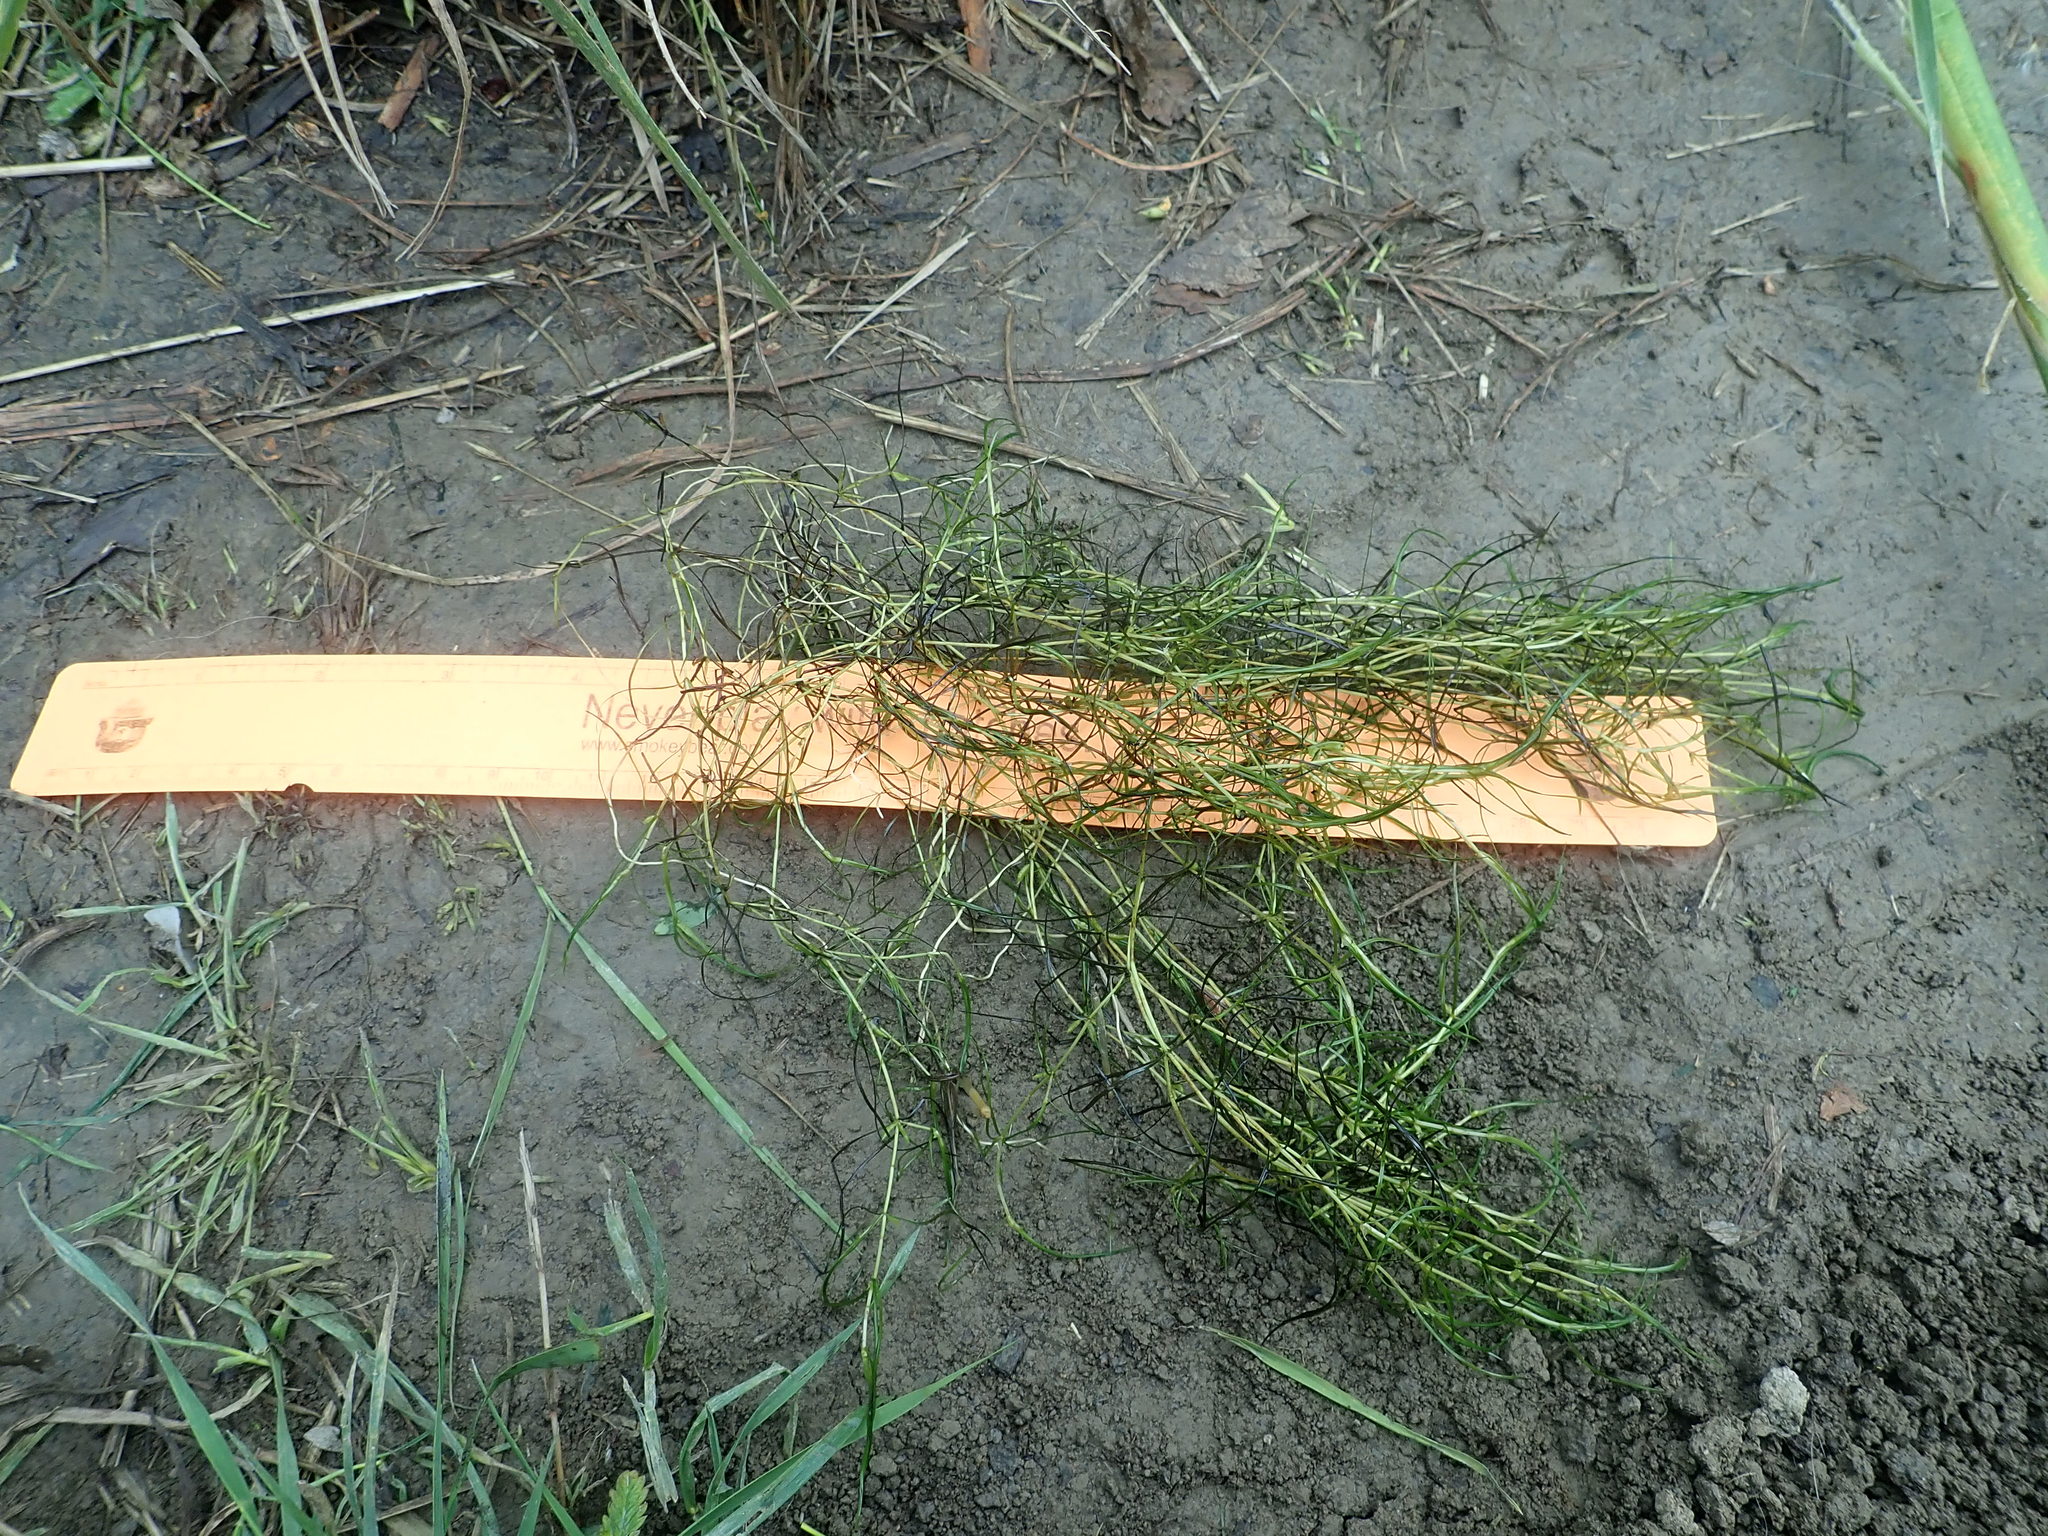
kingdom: Plantae
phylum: Tracheophyta
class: Liliopsida
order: Alismatales
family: Potamogetonaceae
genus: Zannichellia
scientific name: Zannichellia palustris
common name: Horned pondweed
